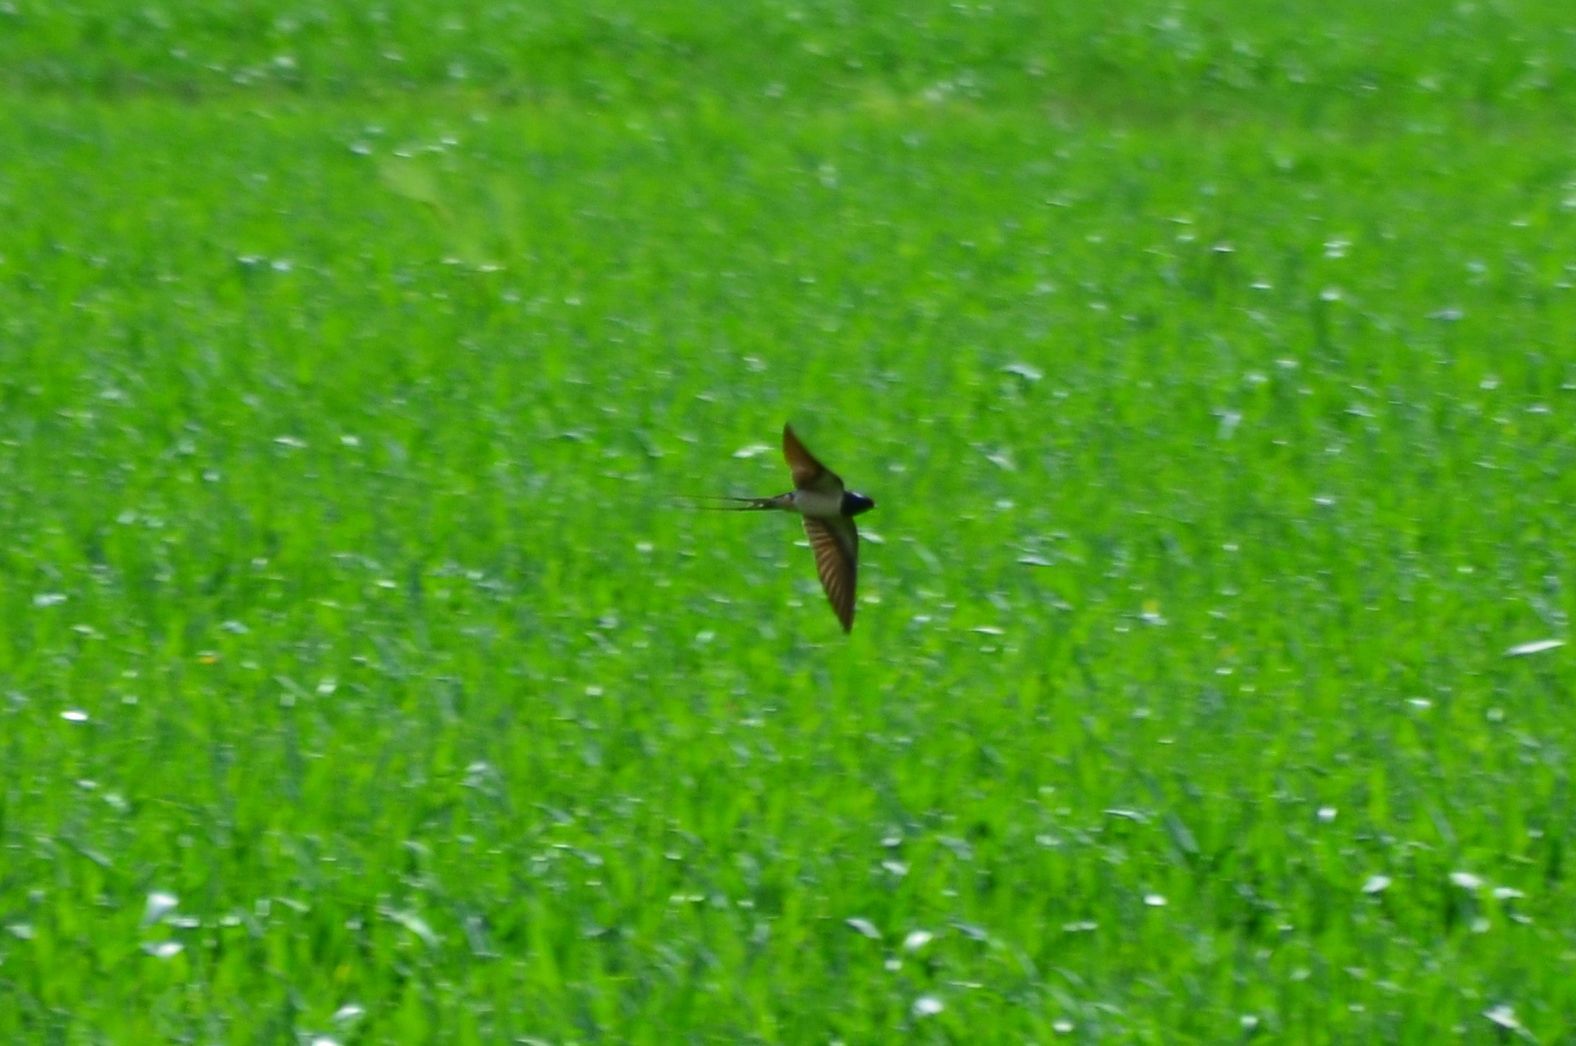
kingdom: Animalia
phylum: Chordata
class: Aves
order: Passeriformes
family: Hirundinidae
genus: Hirundo
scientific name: Hirundo rustica
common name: Barn swallow
